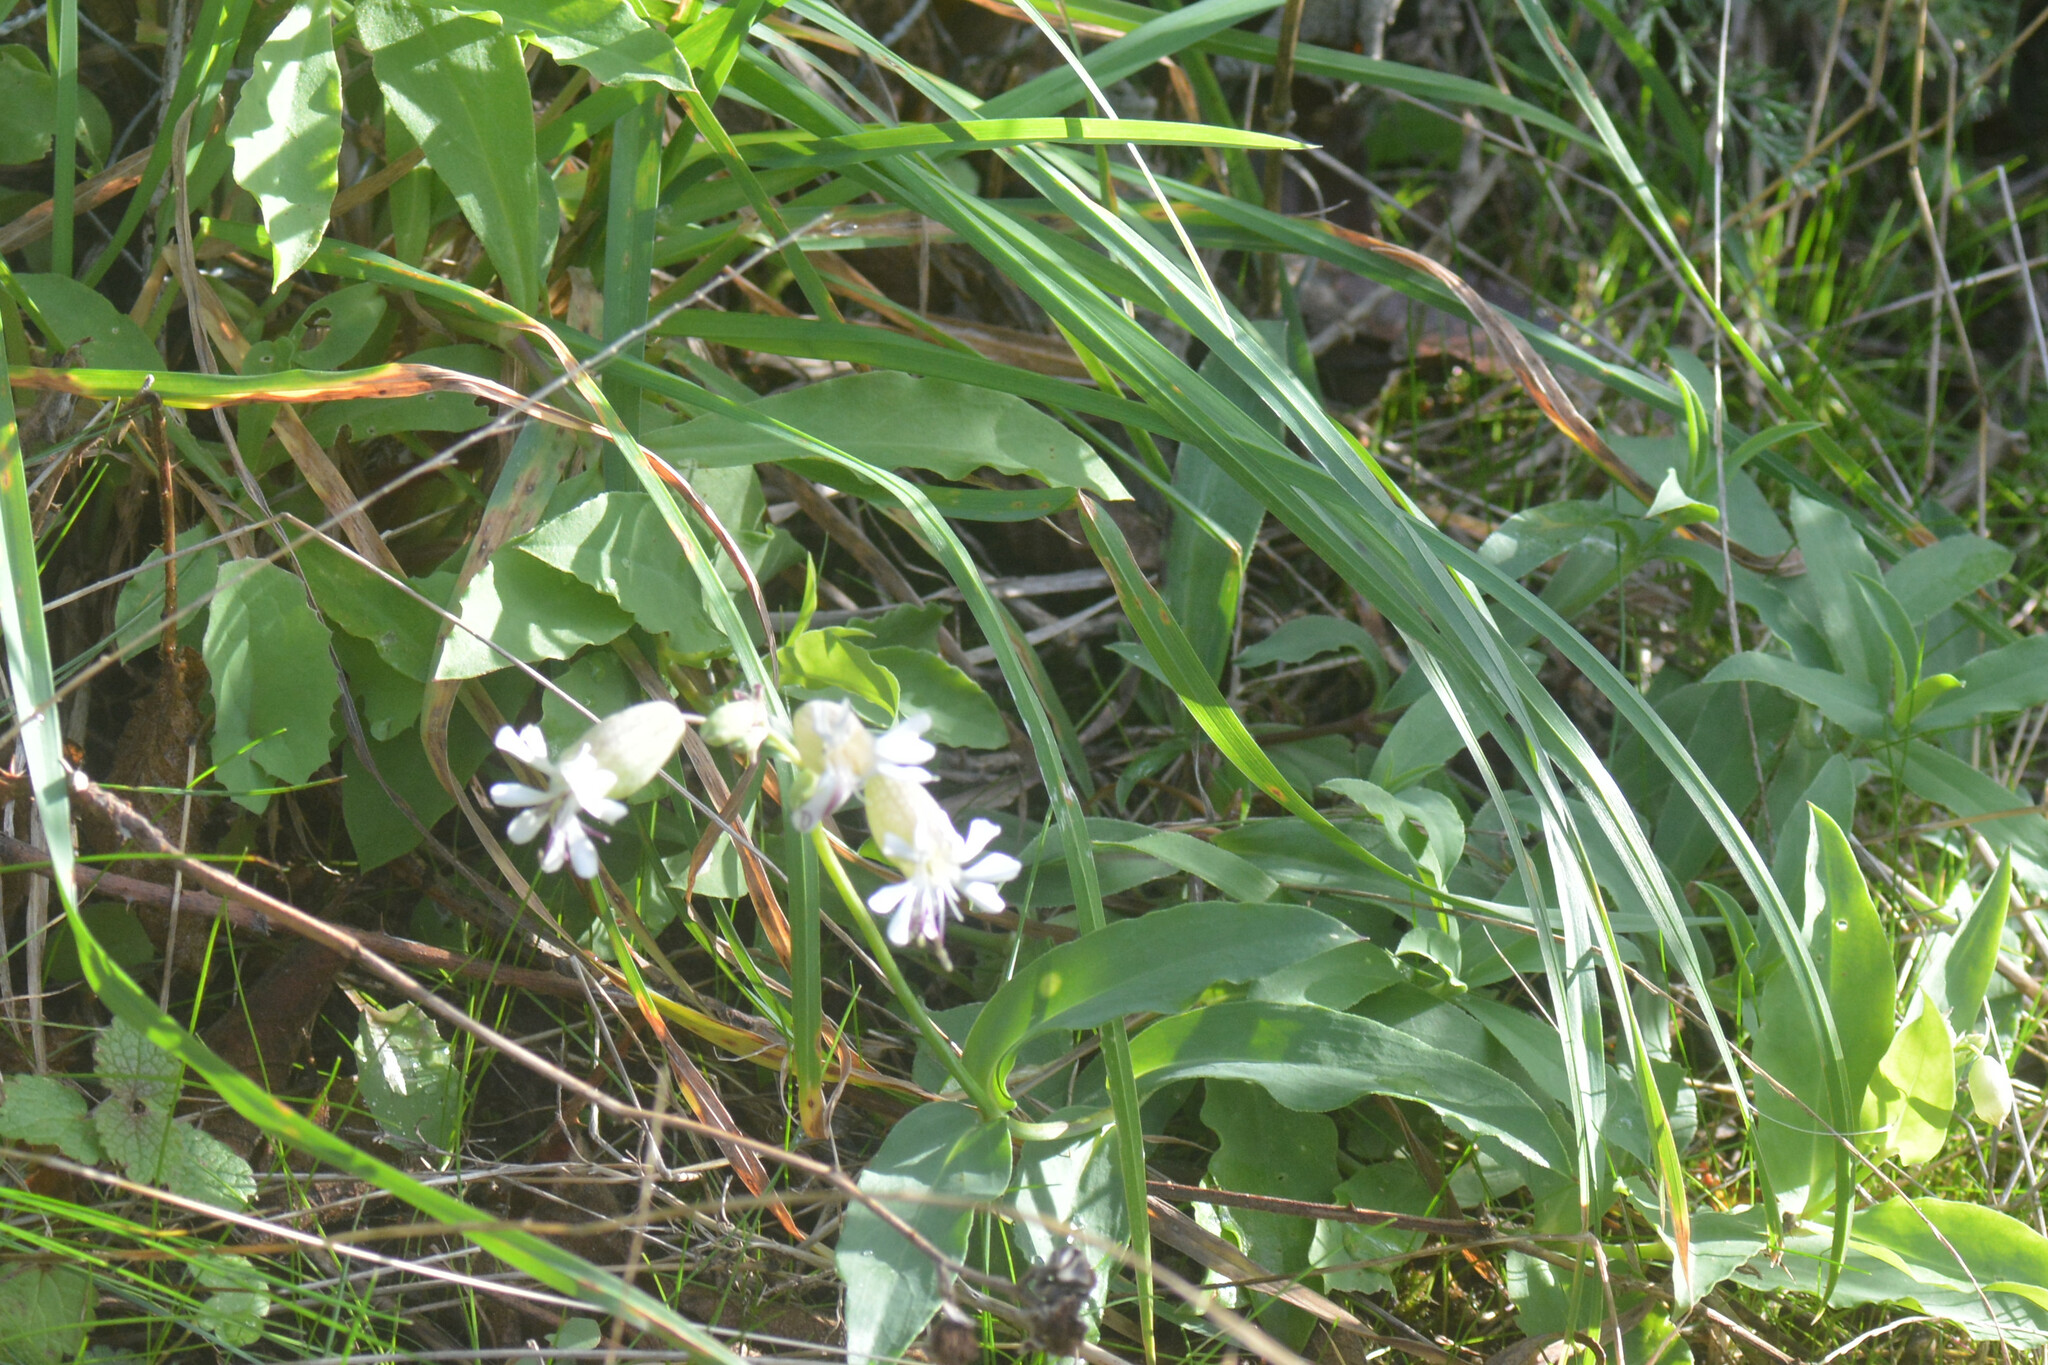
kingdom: Plantae
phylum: Tracheophyta
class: Magnoliopsida
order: Caryophyllales
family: Caryophyllaceae
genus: Silene
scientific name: Silene vulgaris
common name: Bladder campion
